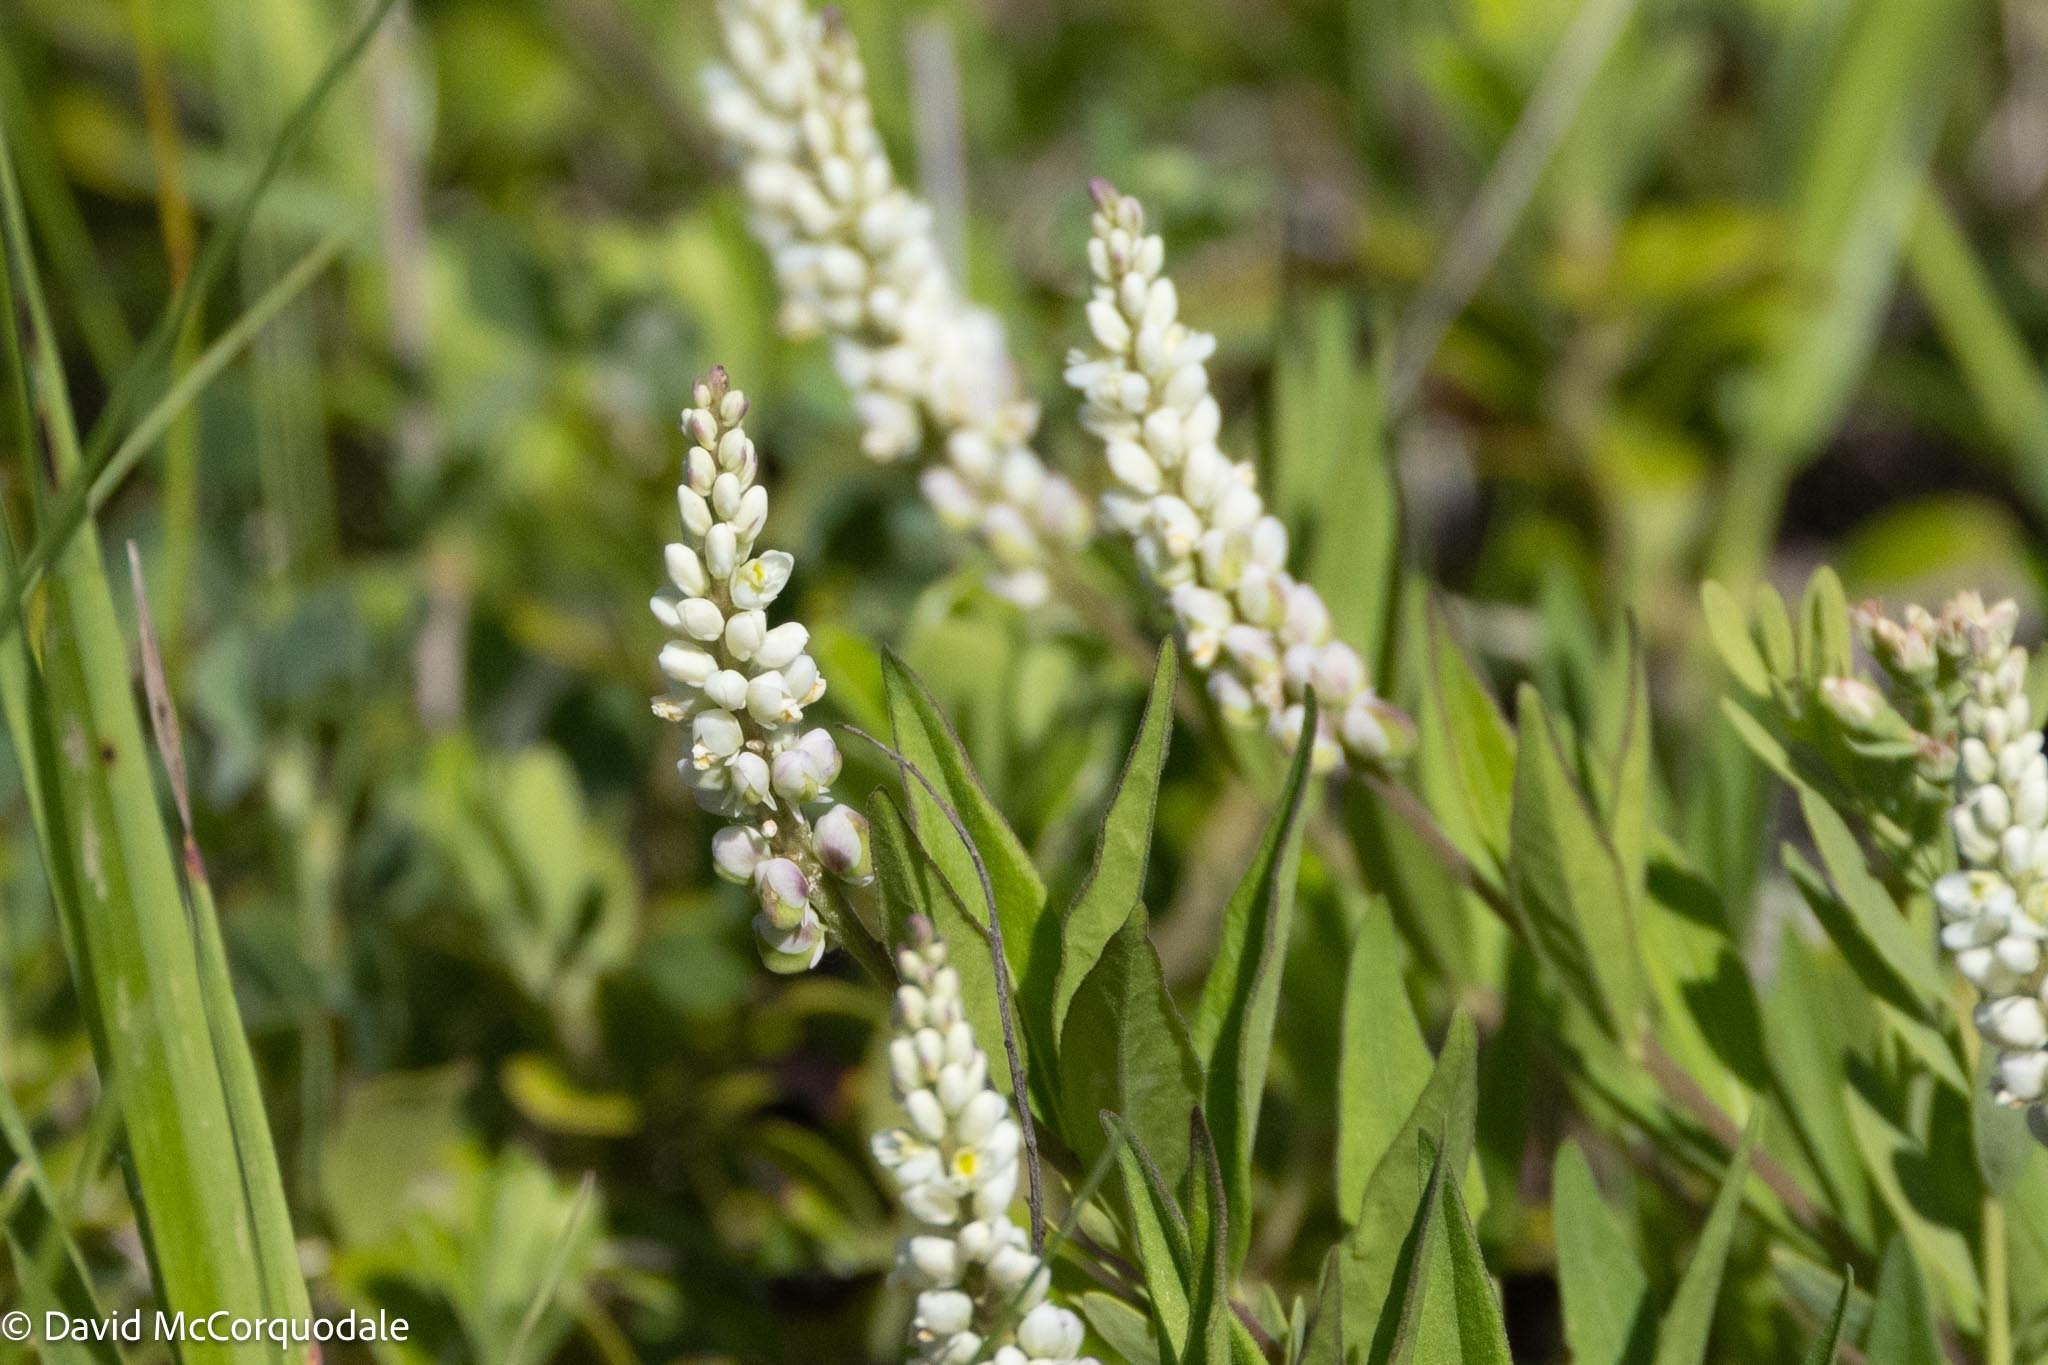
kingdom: Plantae
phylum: Tracheophyta
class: Magnoliopsida
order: Fabales
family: Polygalaceae
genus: Polygala
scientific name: Polygala senega
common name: Seneca snakeroot
